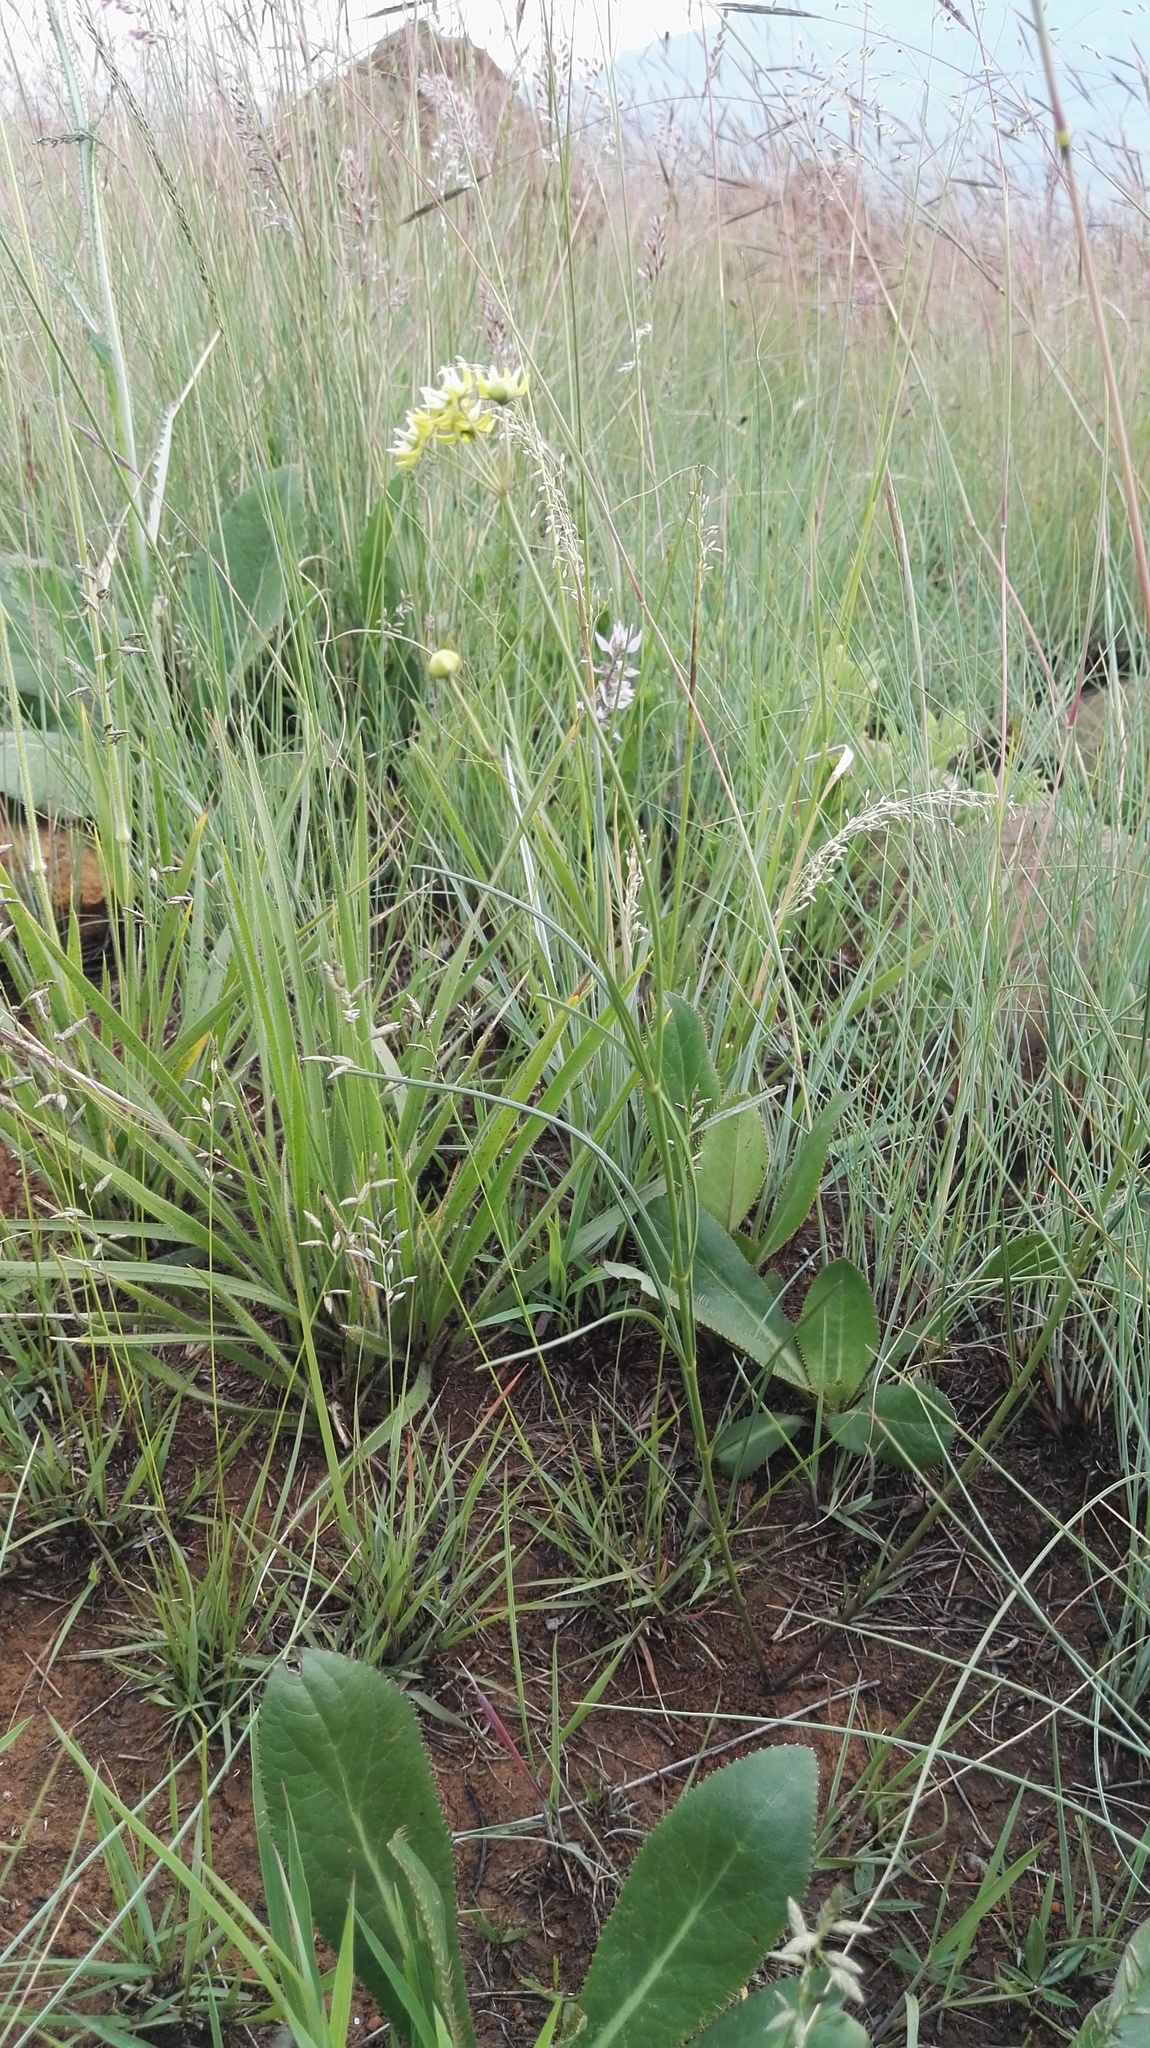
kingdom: Plantae
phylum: Tracheophyta
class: Magnoliopsida
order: Gentianales
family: Apocynaceae
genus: Asclepias
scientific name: Asclepias aurea
